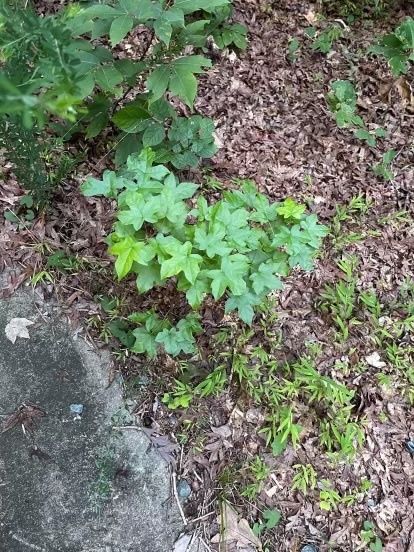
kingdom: Plantae
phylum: Tracheophyta
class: Magnoliopsida
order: Saxifragales
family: Altingiaceae
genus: Liquidambar
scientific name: Liquidambar styraciflua
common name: Sweet gum
